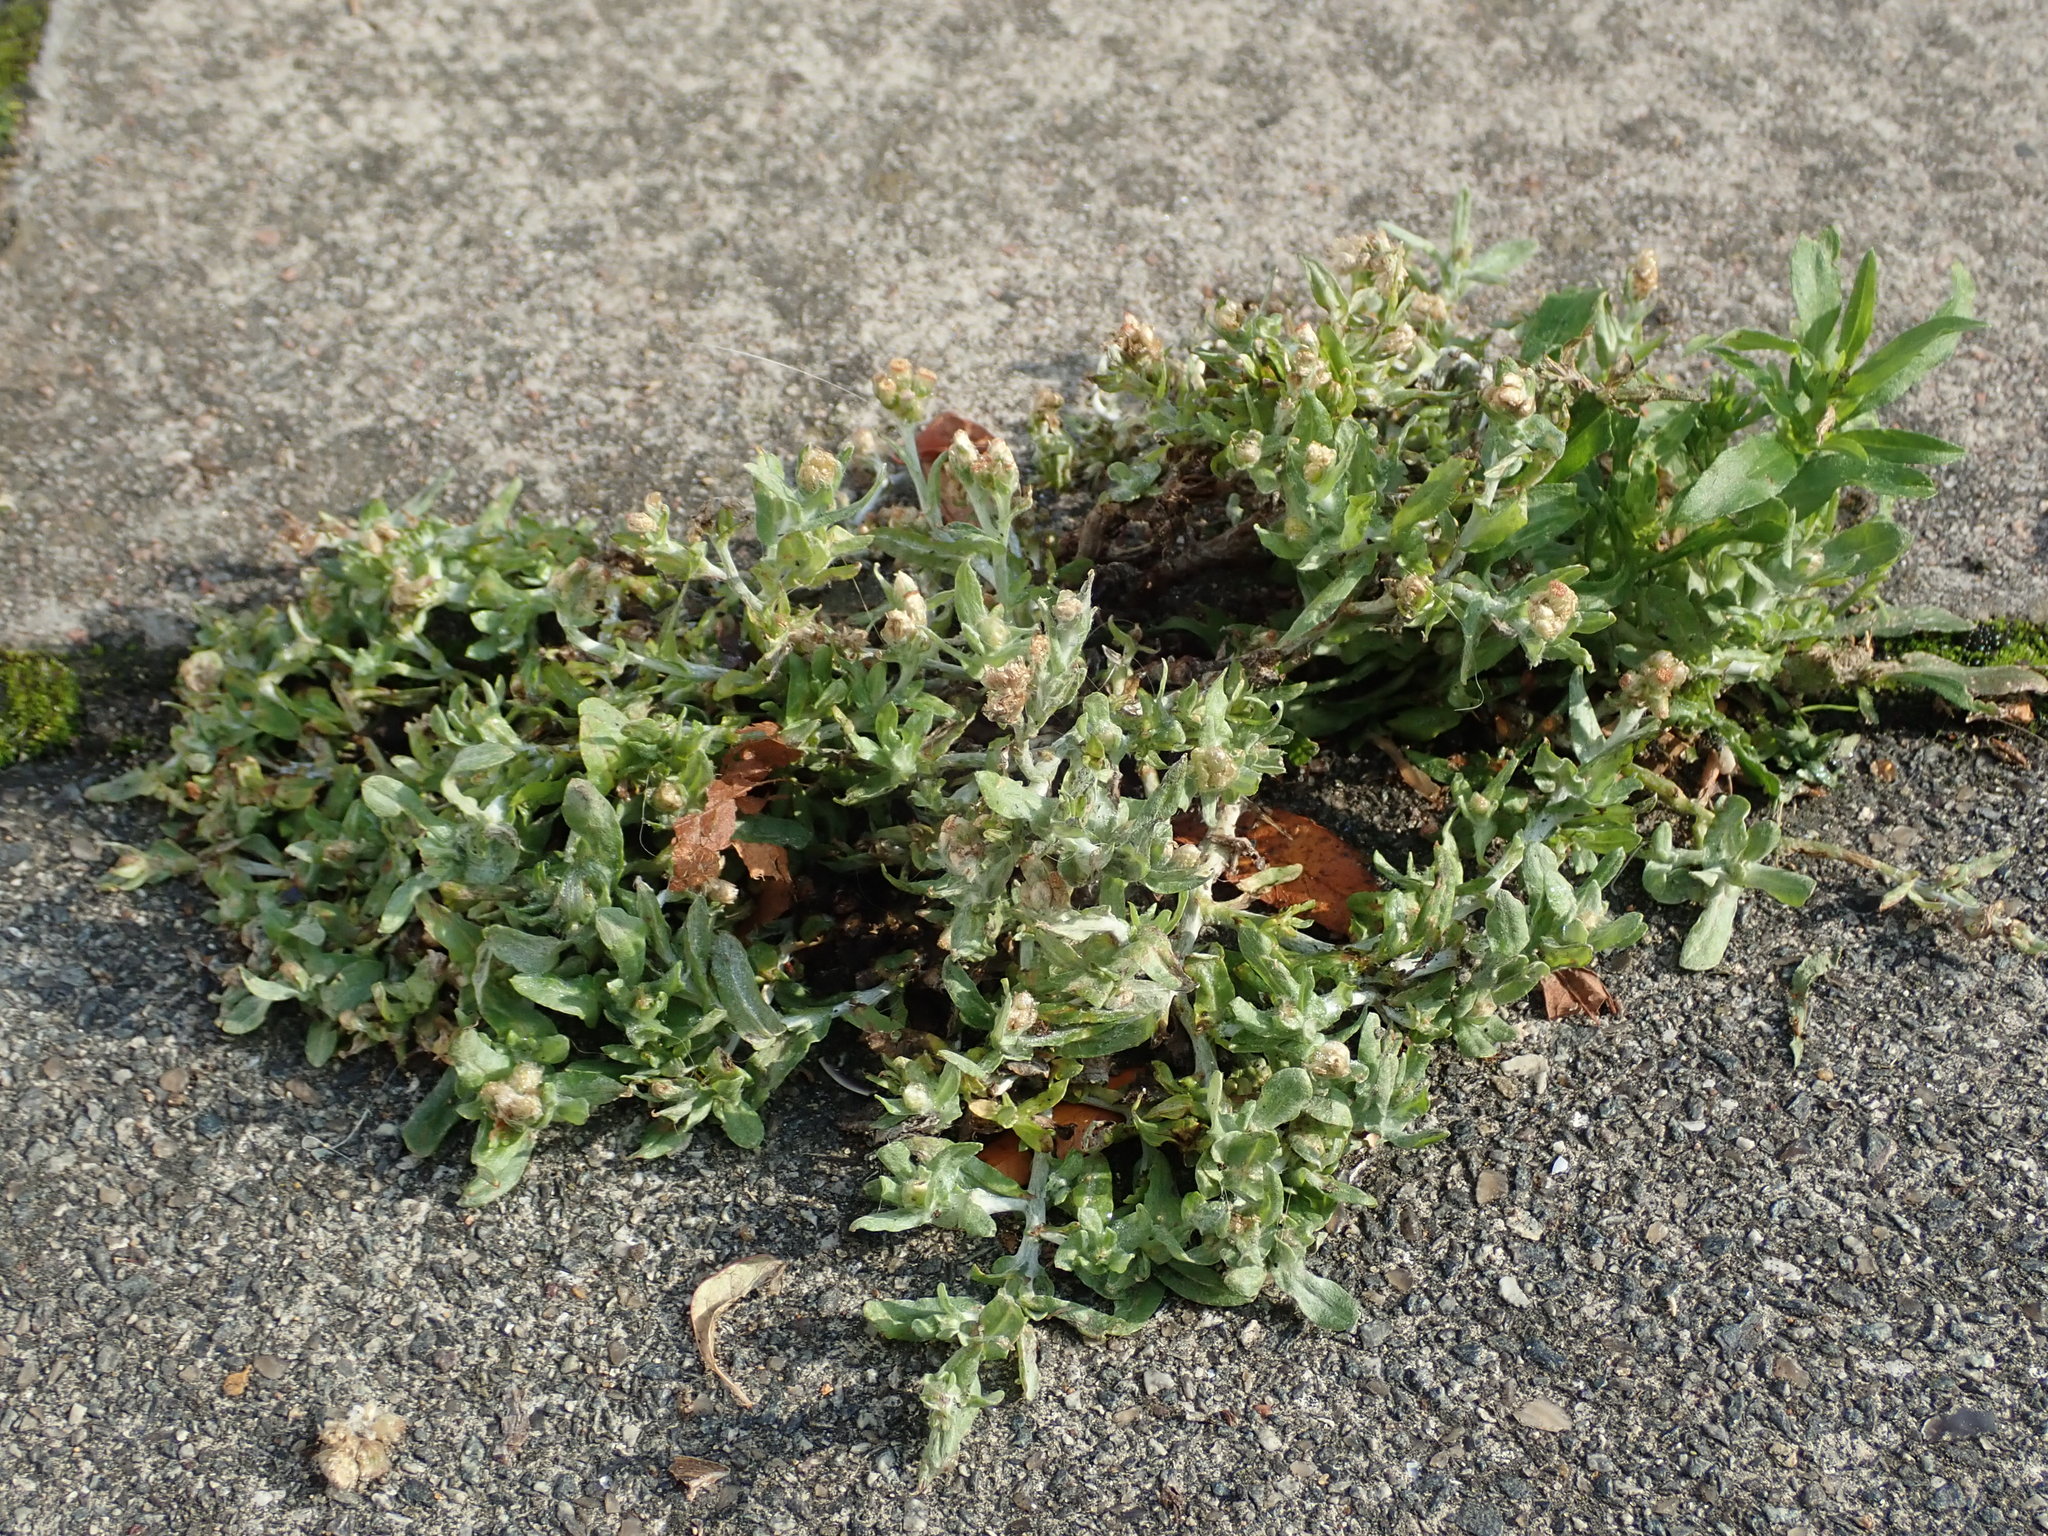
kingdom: Plantae
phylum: Tracheophyta
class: Magnoliopsida
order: Asterales
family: Asteraceae
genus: Helichrysum
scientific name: Helichrysum luteoalbum
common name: Daisy
